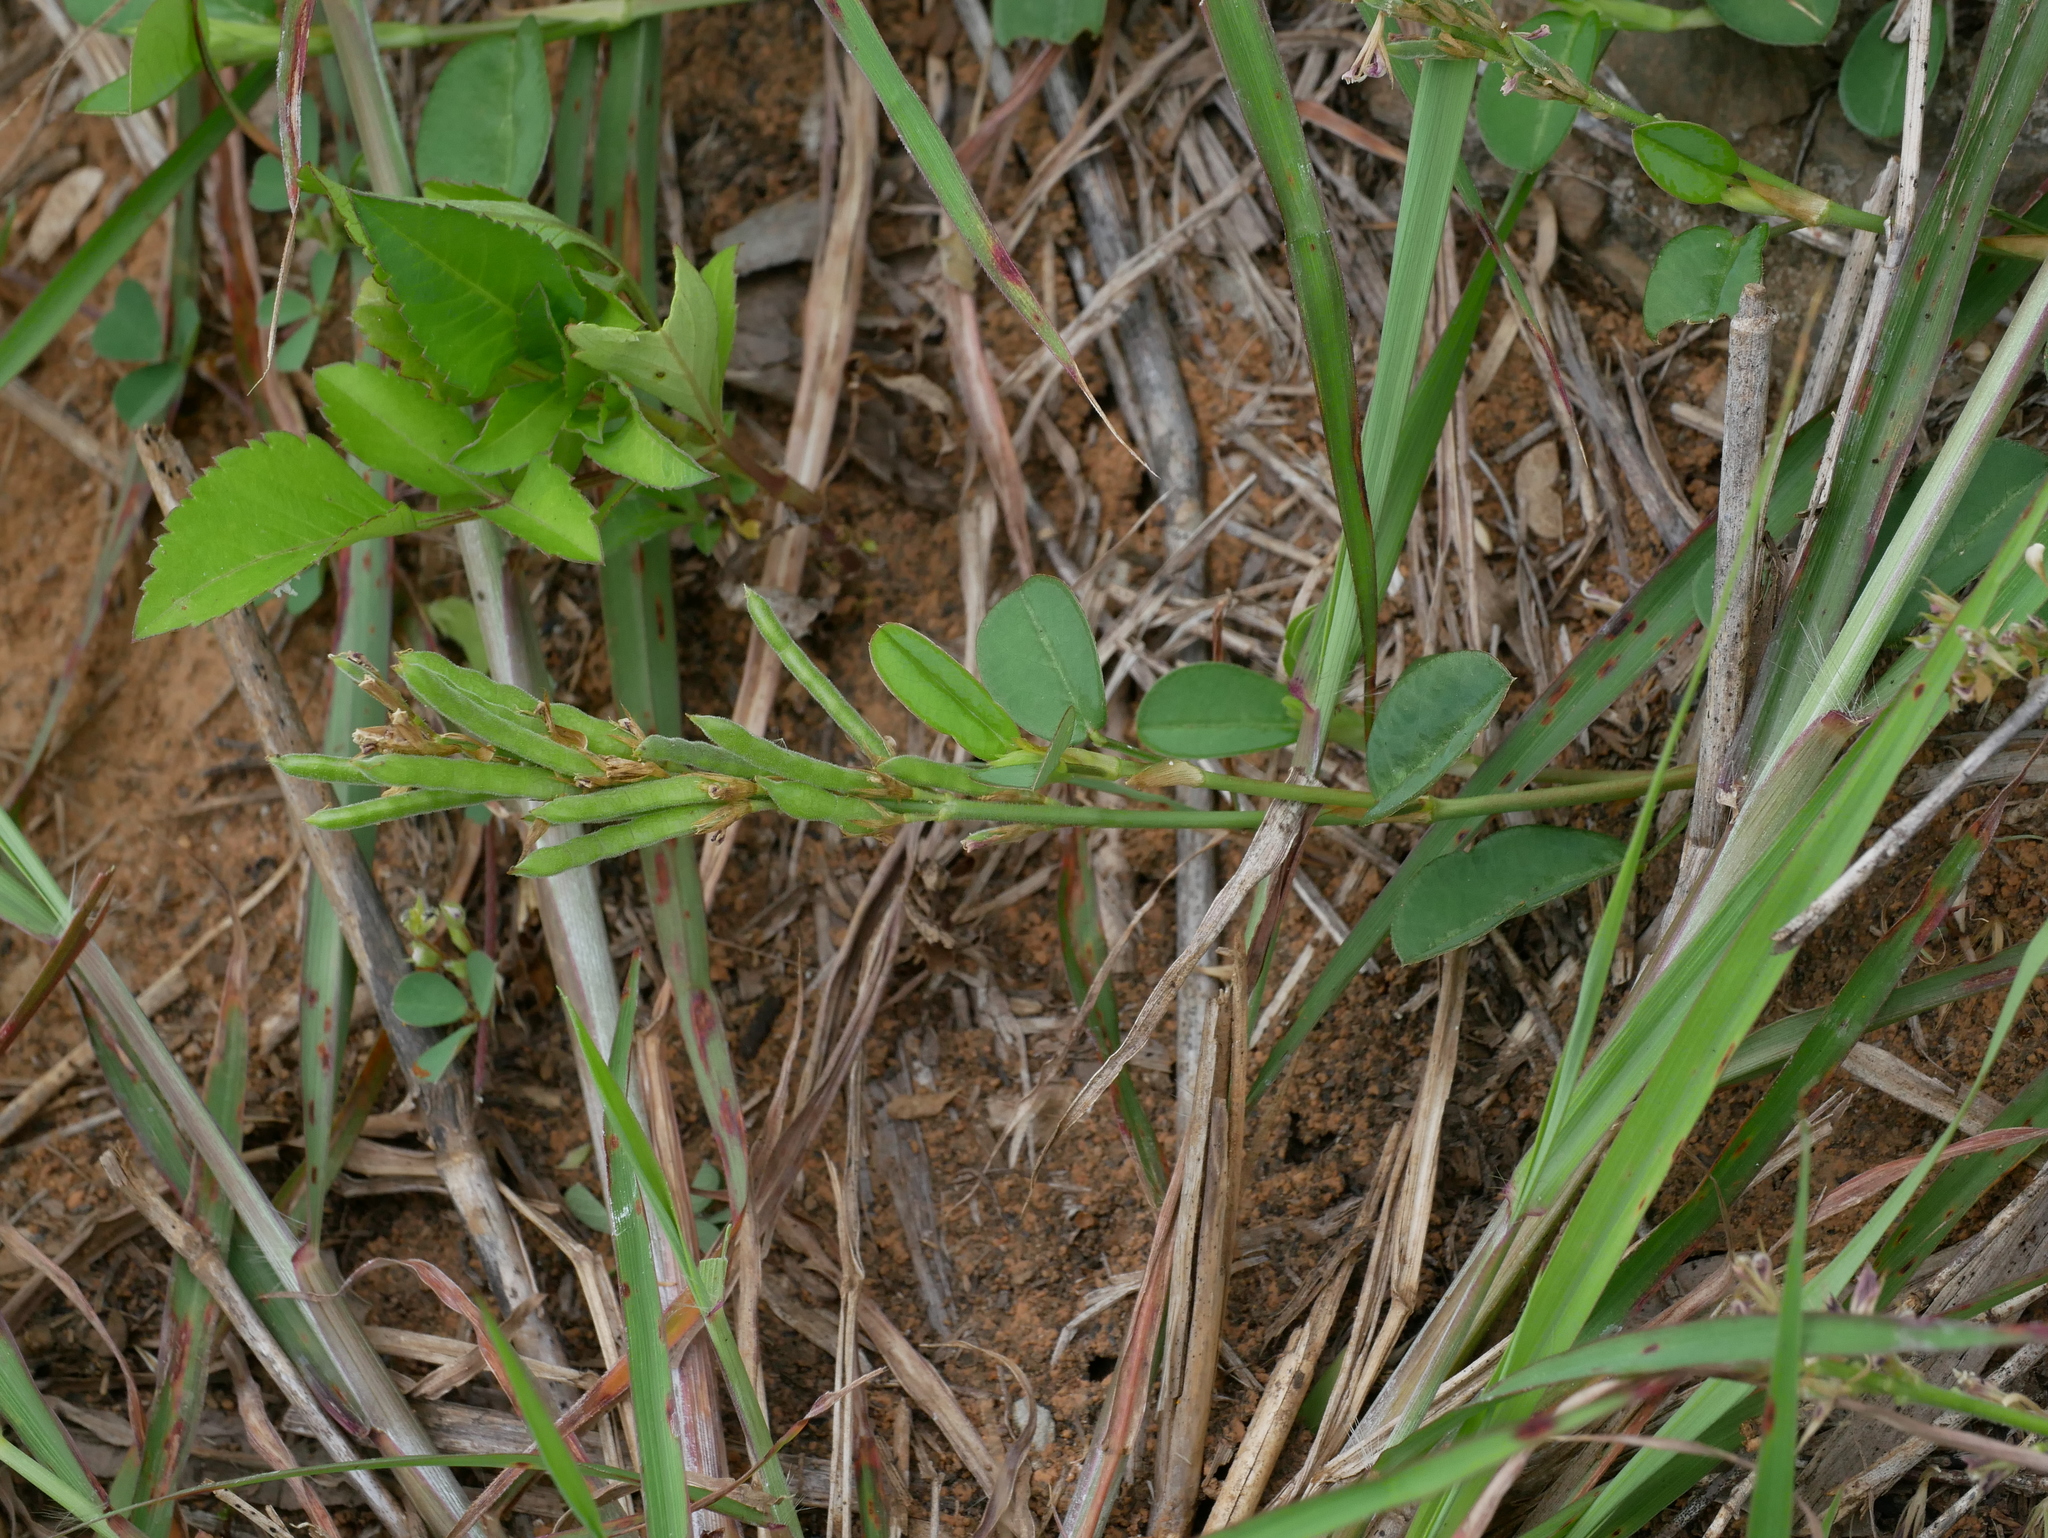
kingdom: Plantae
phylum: Tracheophyta
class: Magnoliopsida
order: Fabales
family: Fabaceae
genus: Alysicarpus
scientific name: Alysicarpus vaginalis
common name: White moneywort
